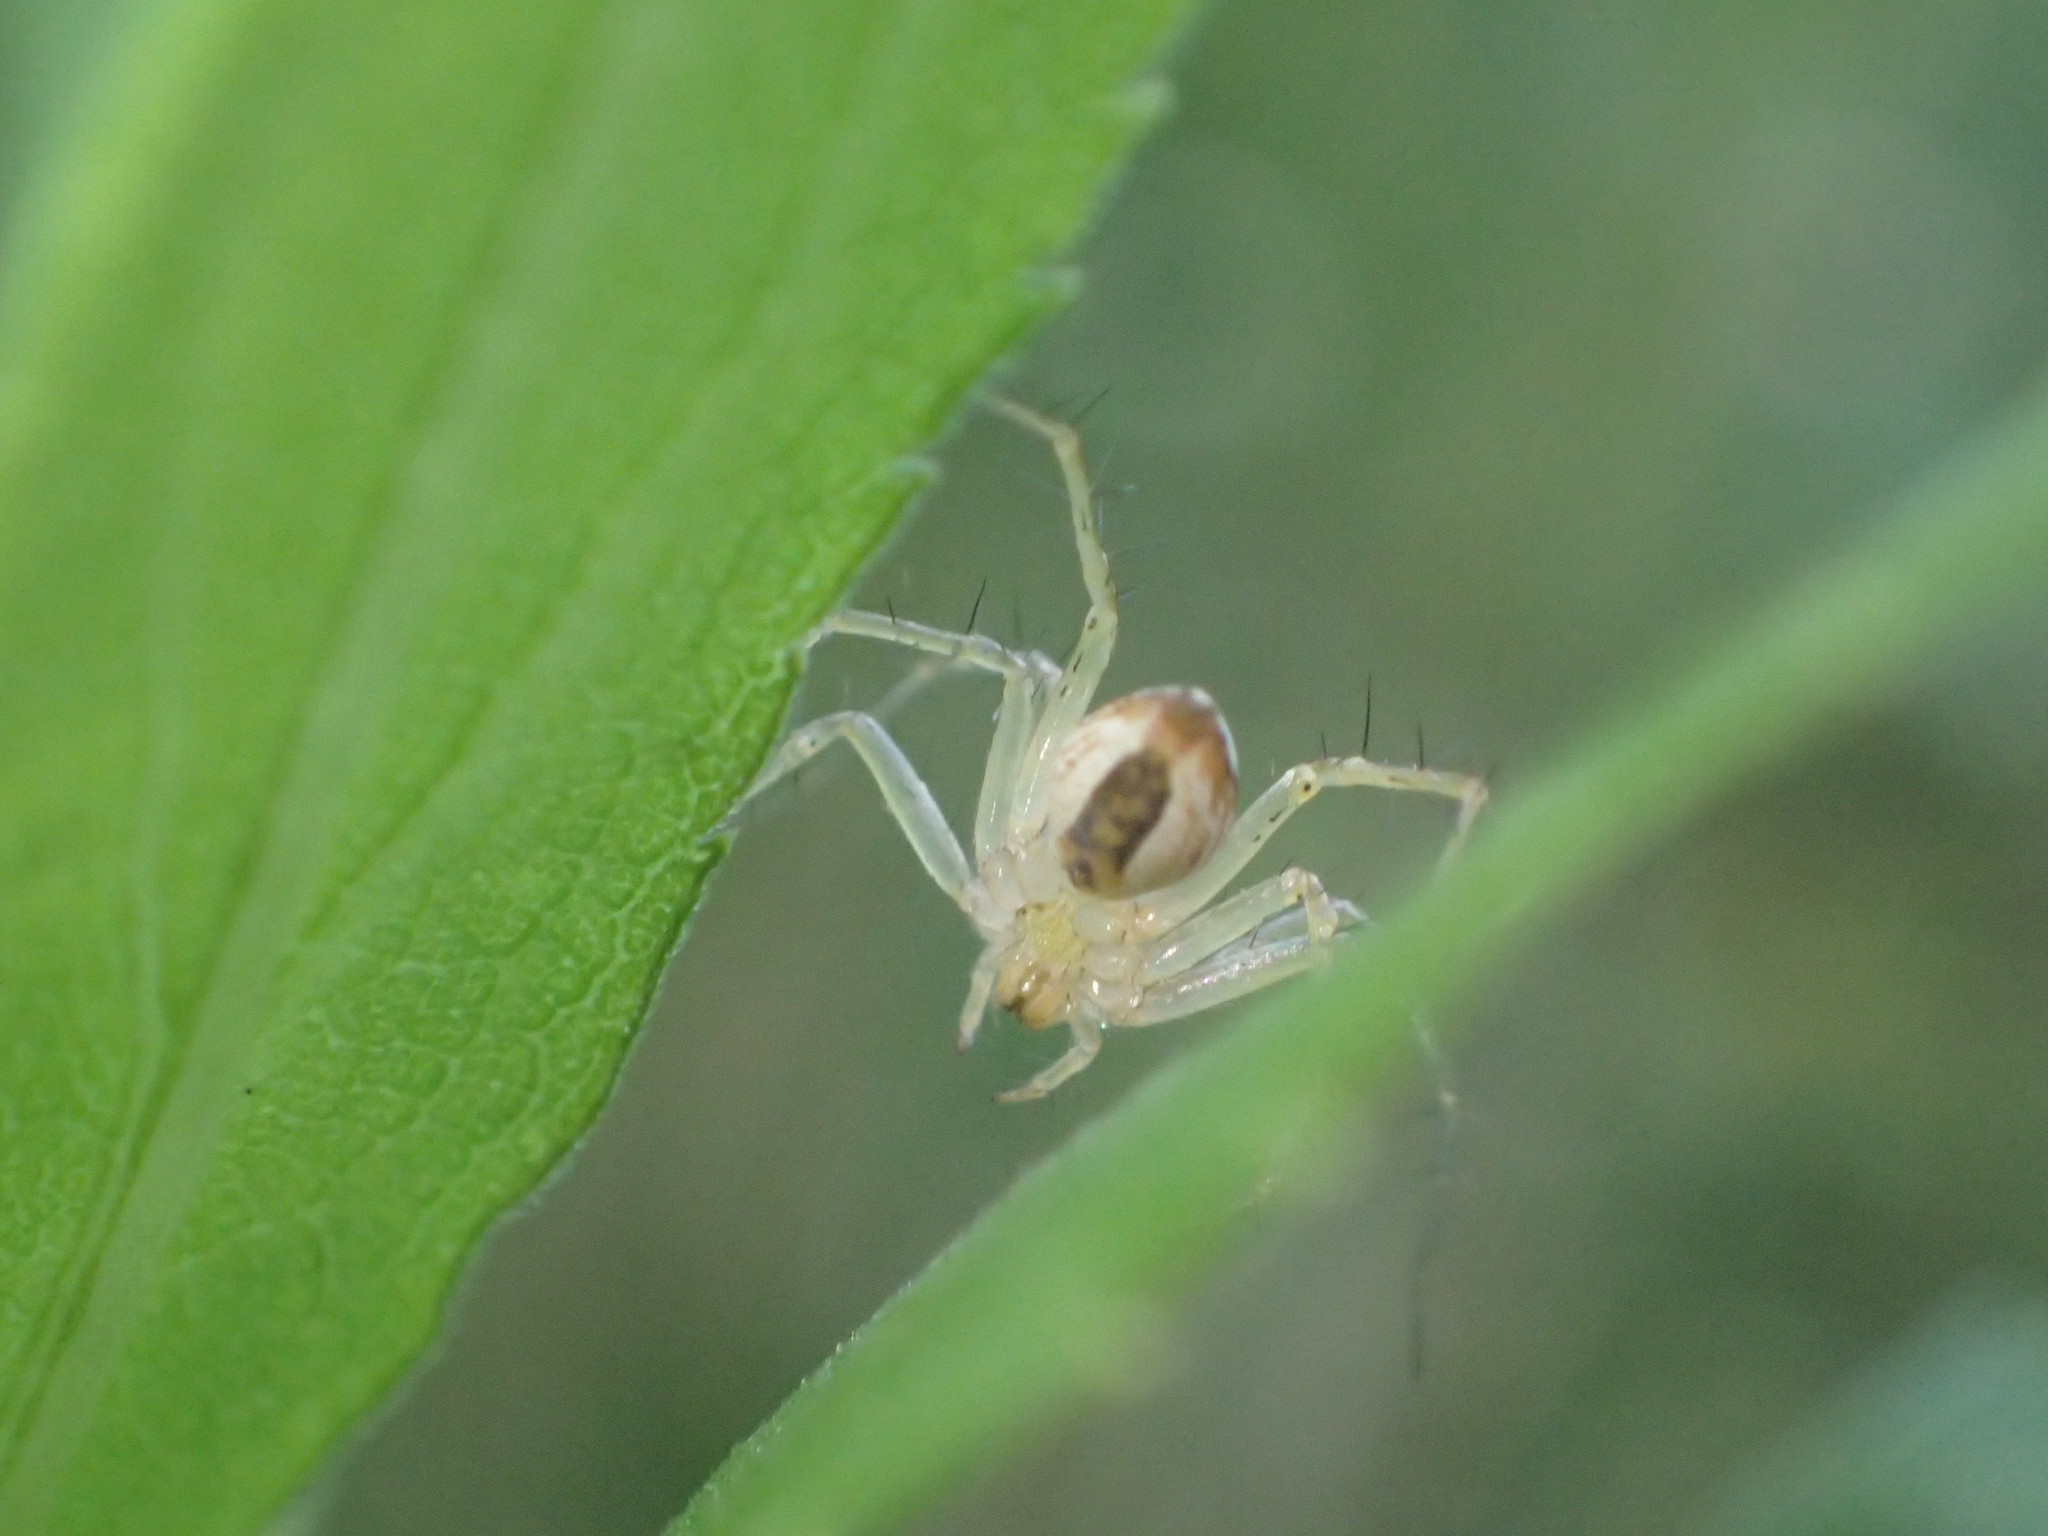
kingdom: Animalia
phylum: Arthropoda
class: Arachnida
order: Araneae
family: Oxyopidae
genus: Oxyopes
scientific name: Oxyopes
